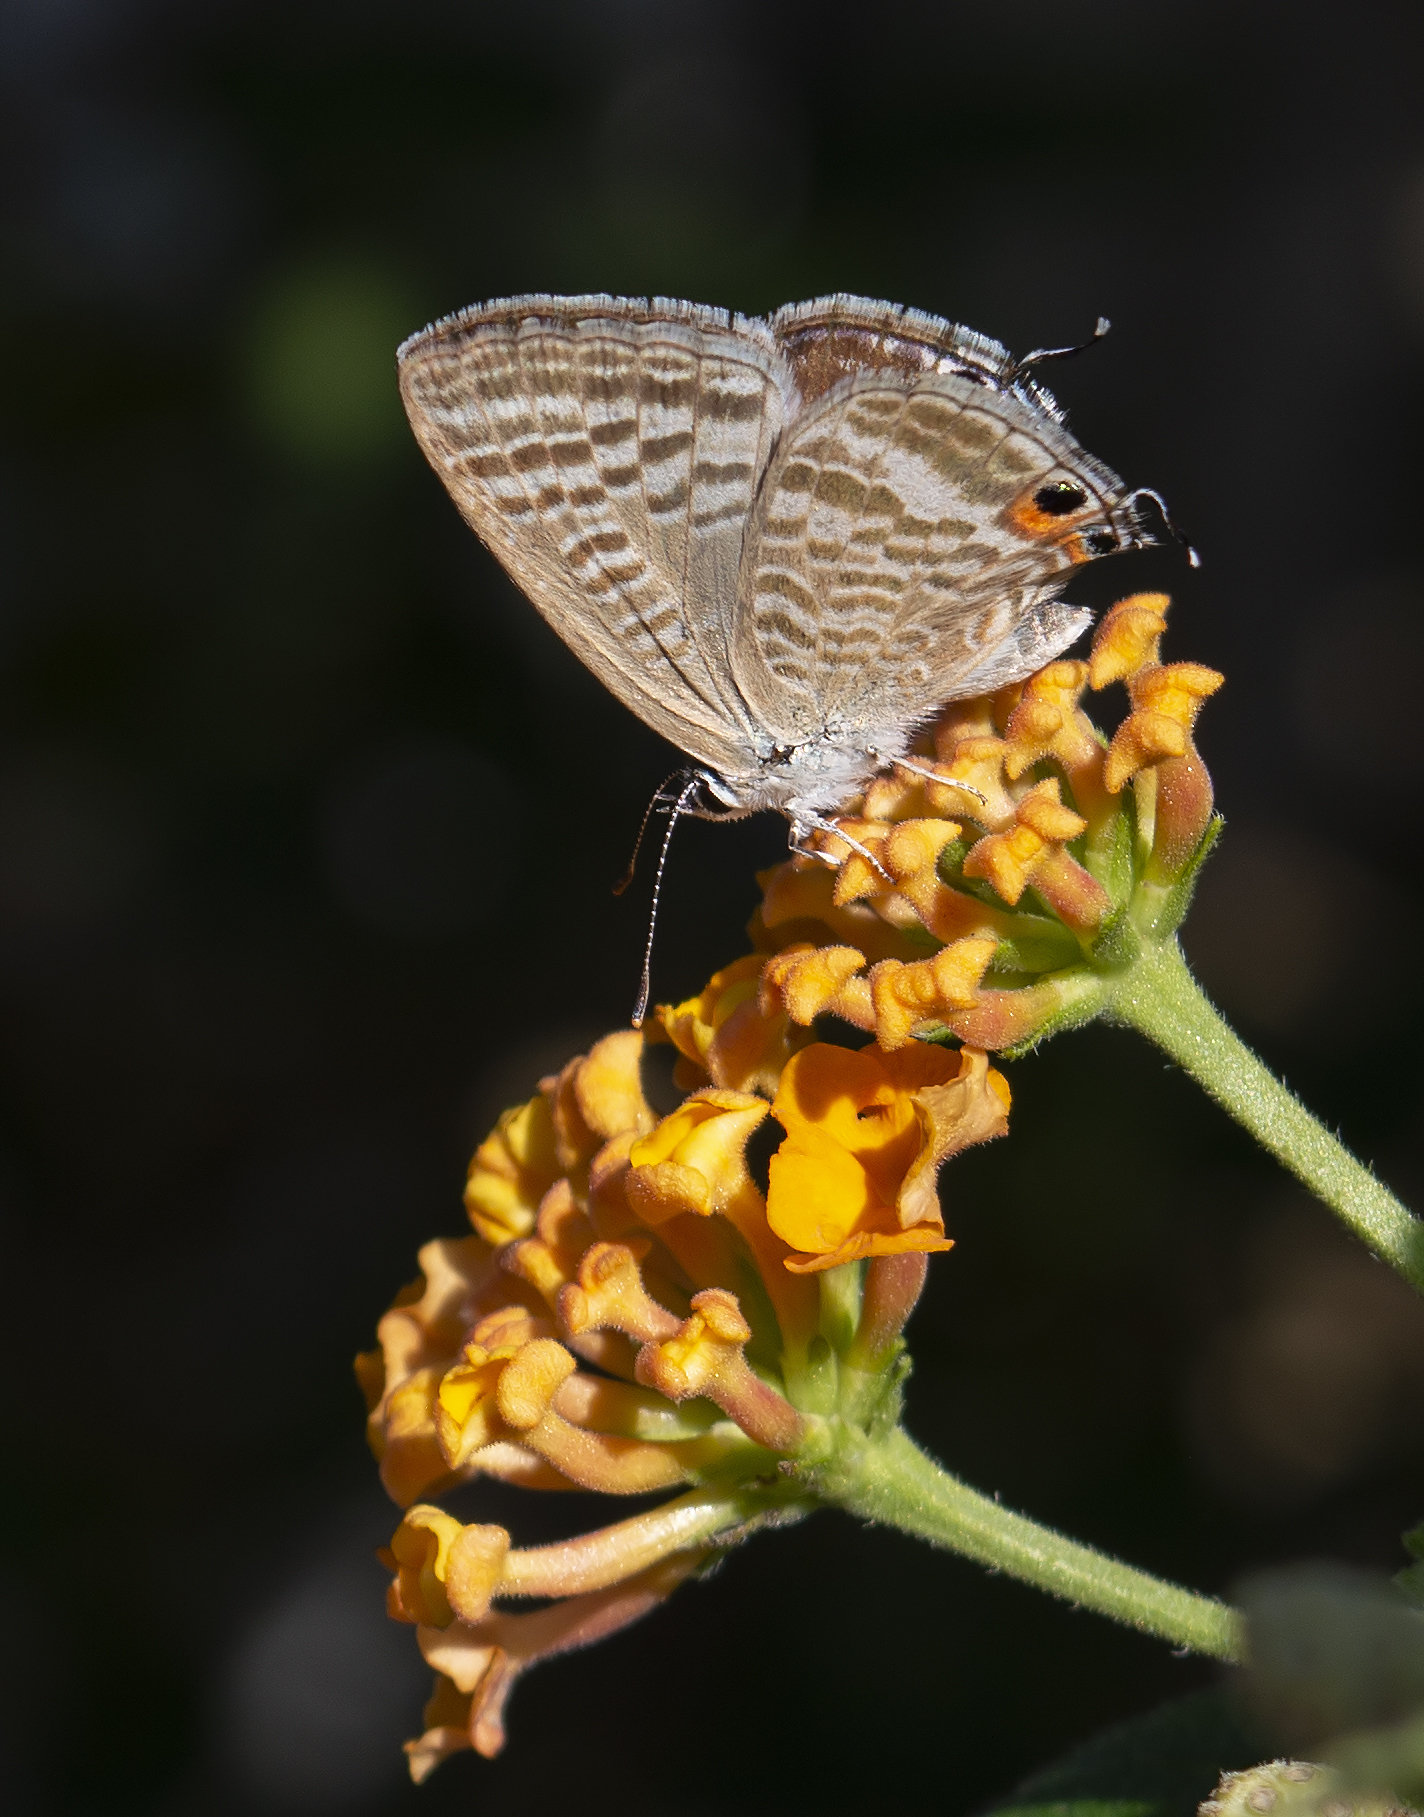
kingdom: Animalia
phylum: Arthropoda
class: Insecta
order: Lepidoptera
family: Lycaenidae
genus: Lampides
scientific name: Lampides boeticus
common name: Long-tailed blue
